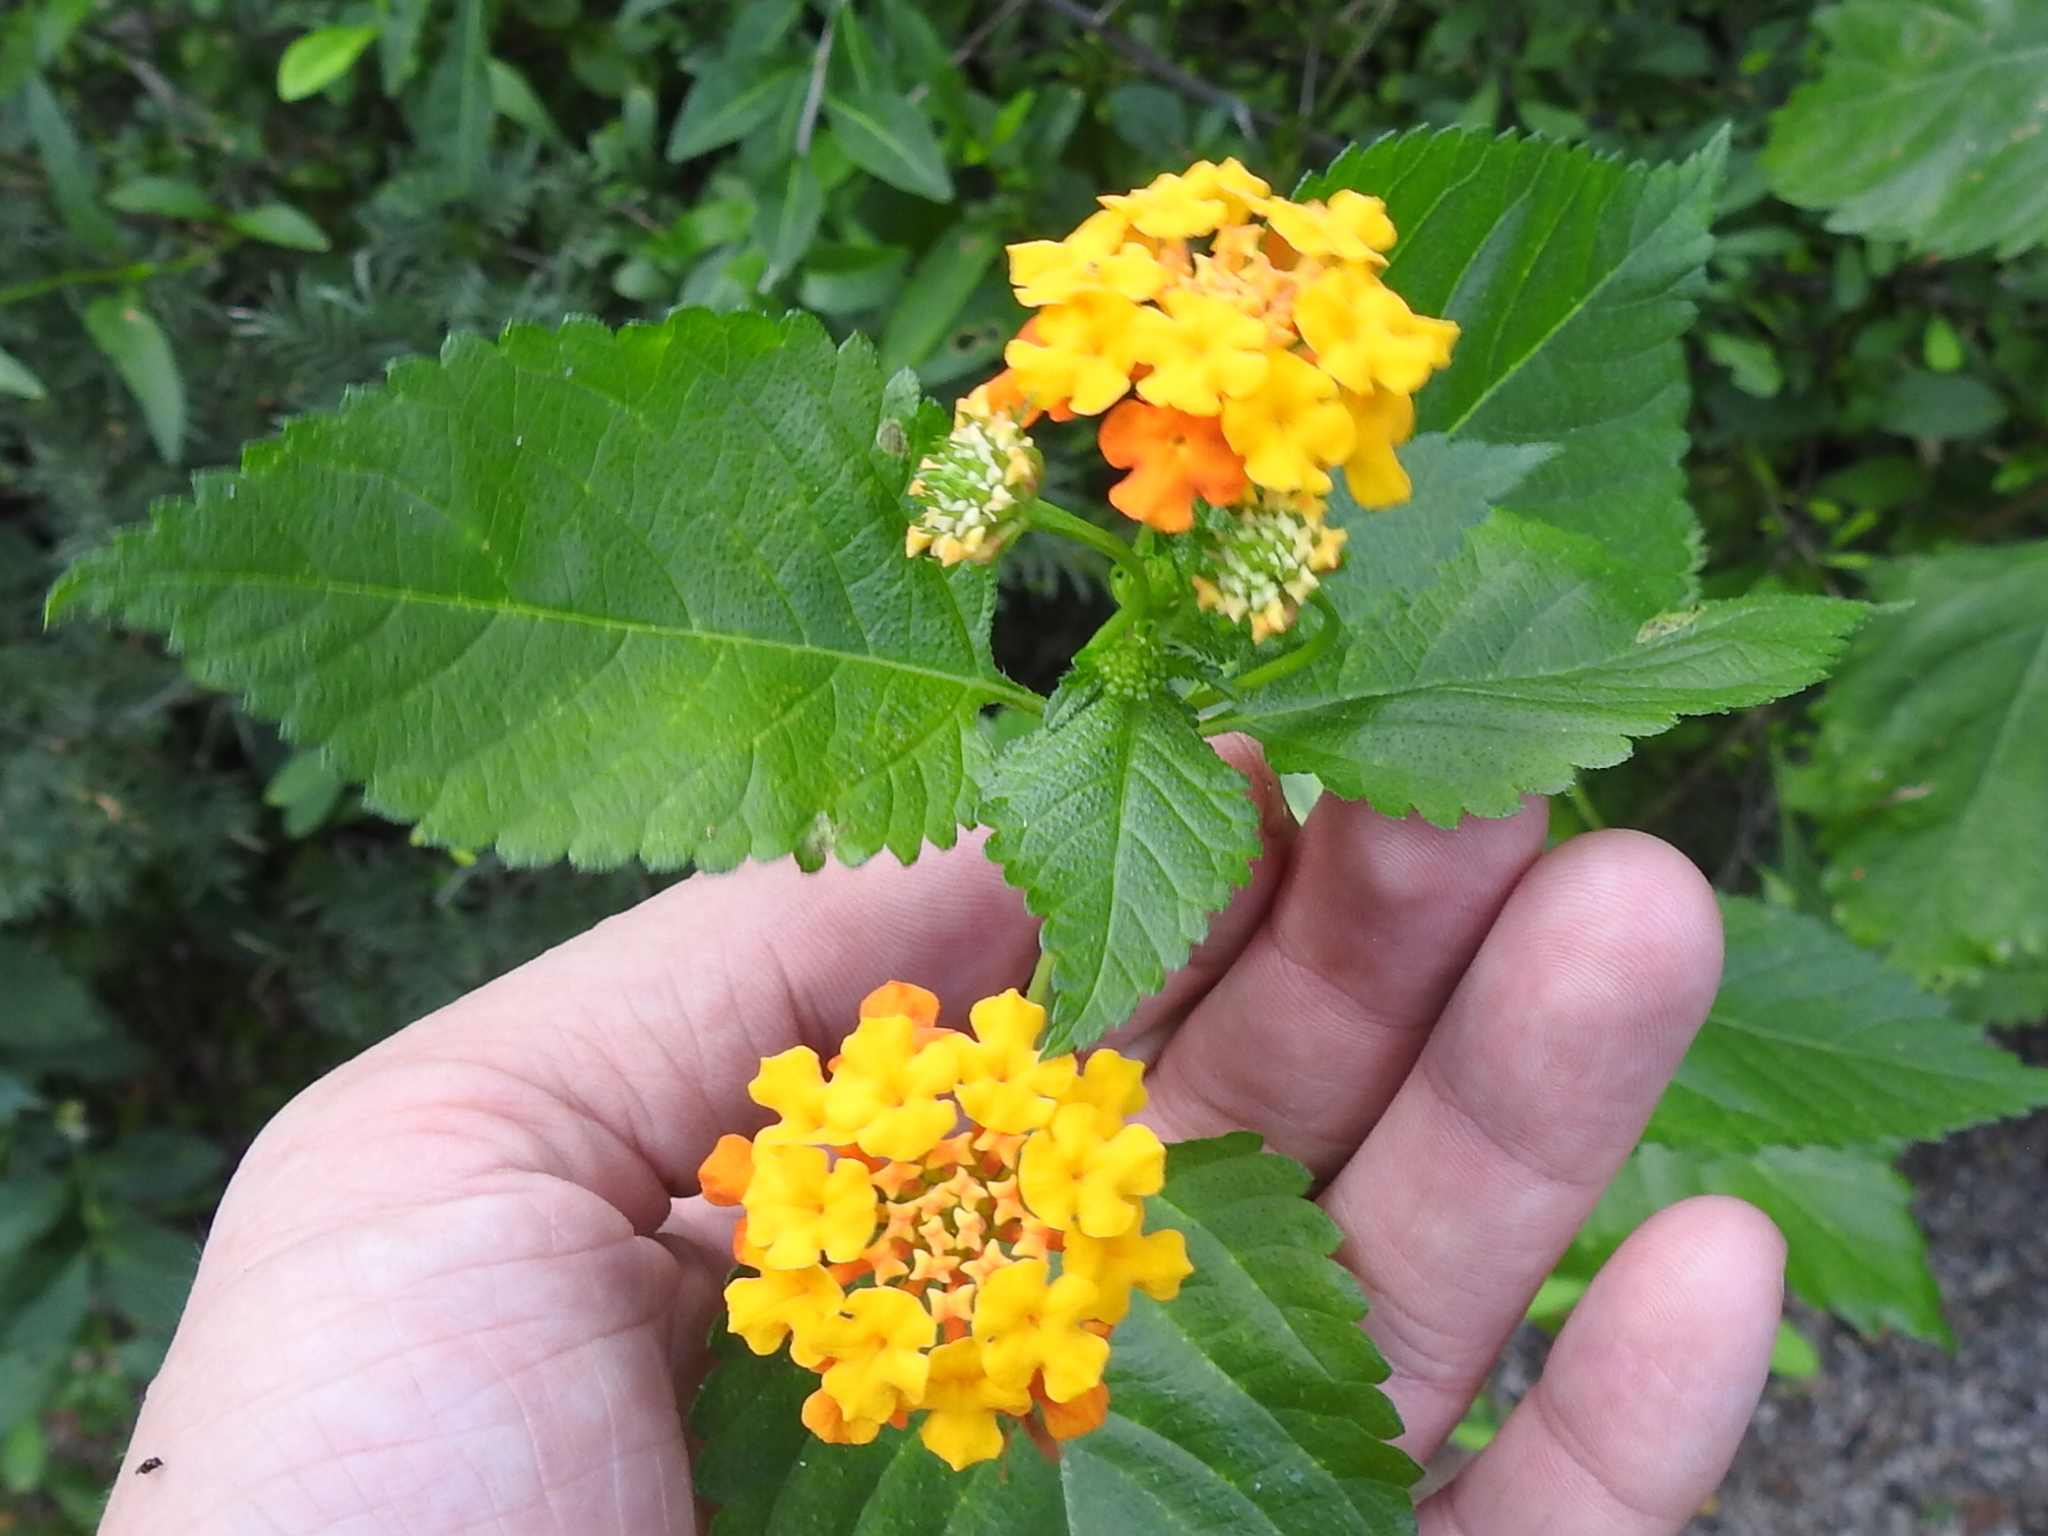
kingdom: Plantae
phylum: Tracheophyta
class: Magnoliopsida
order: Lamiales
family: Verbenaceae
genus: Lantana
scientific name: Lantana camara
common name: Lantana
